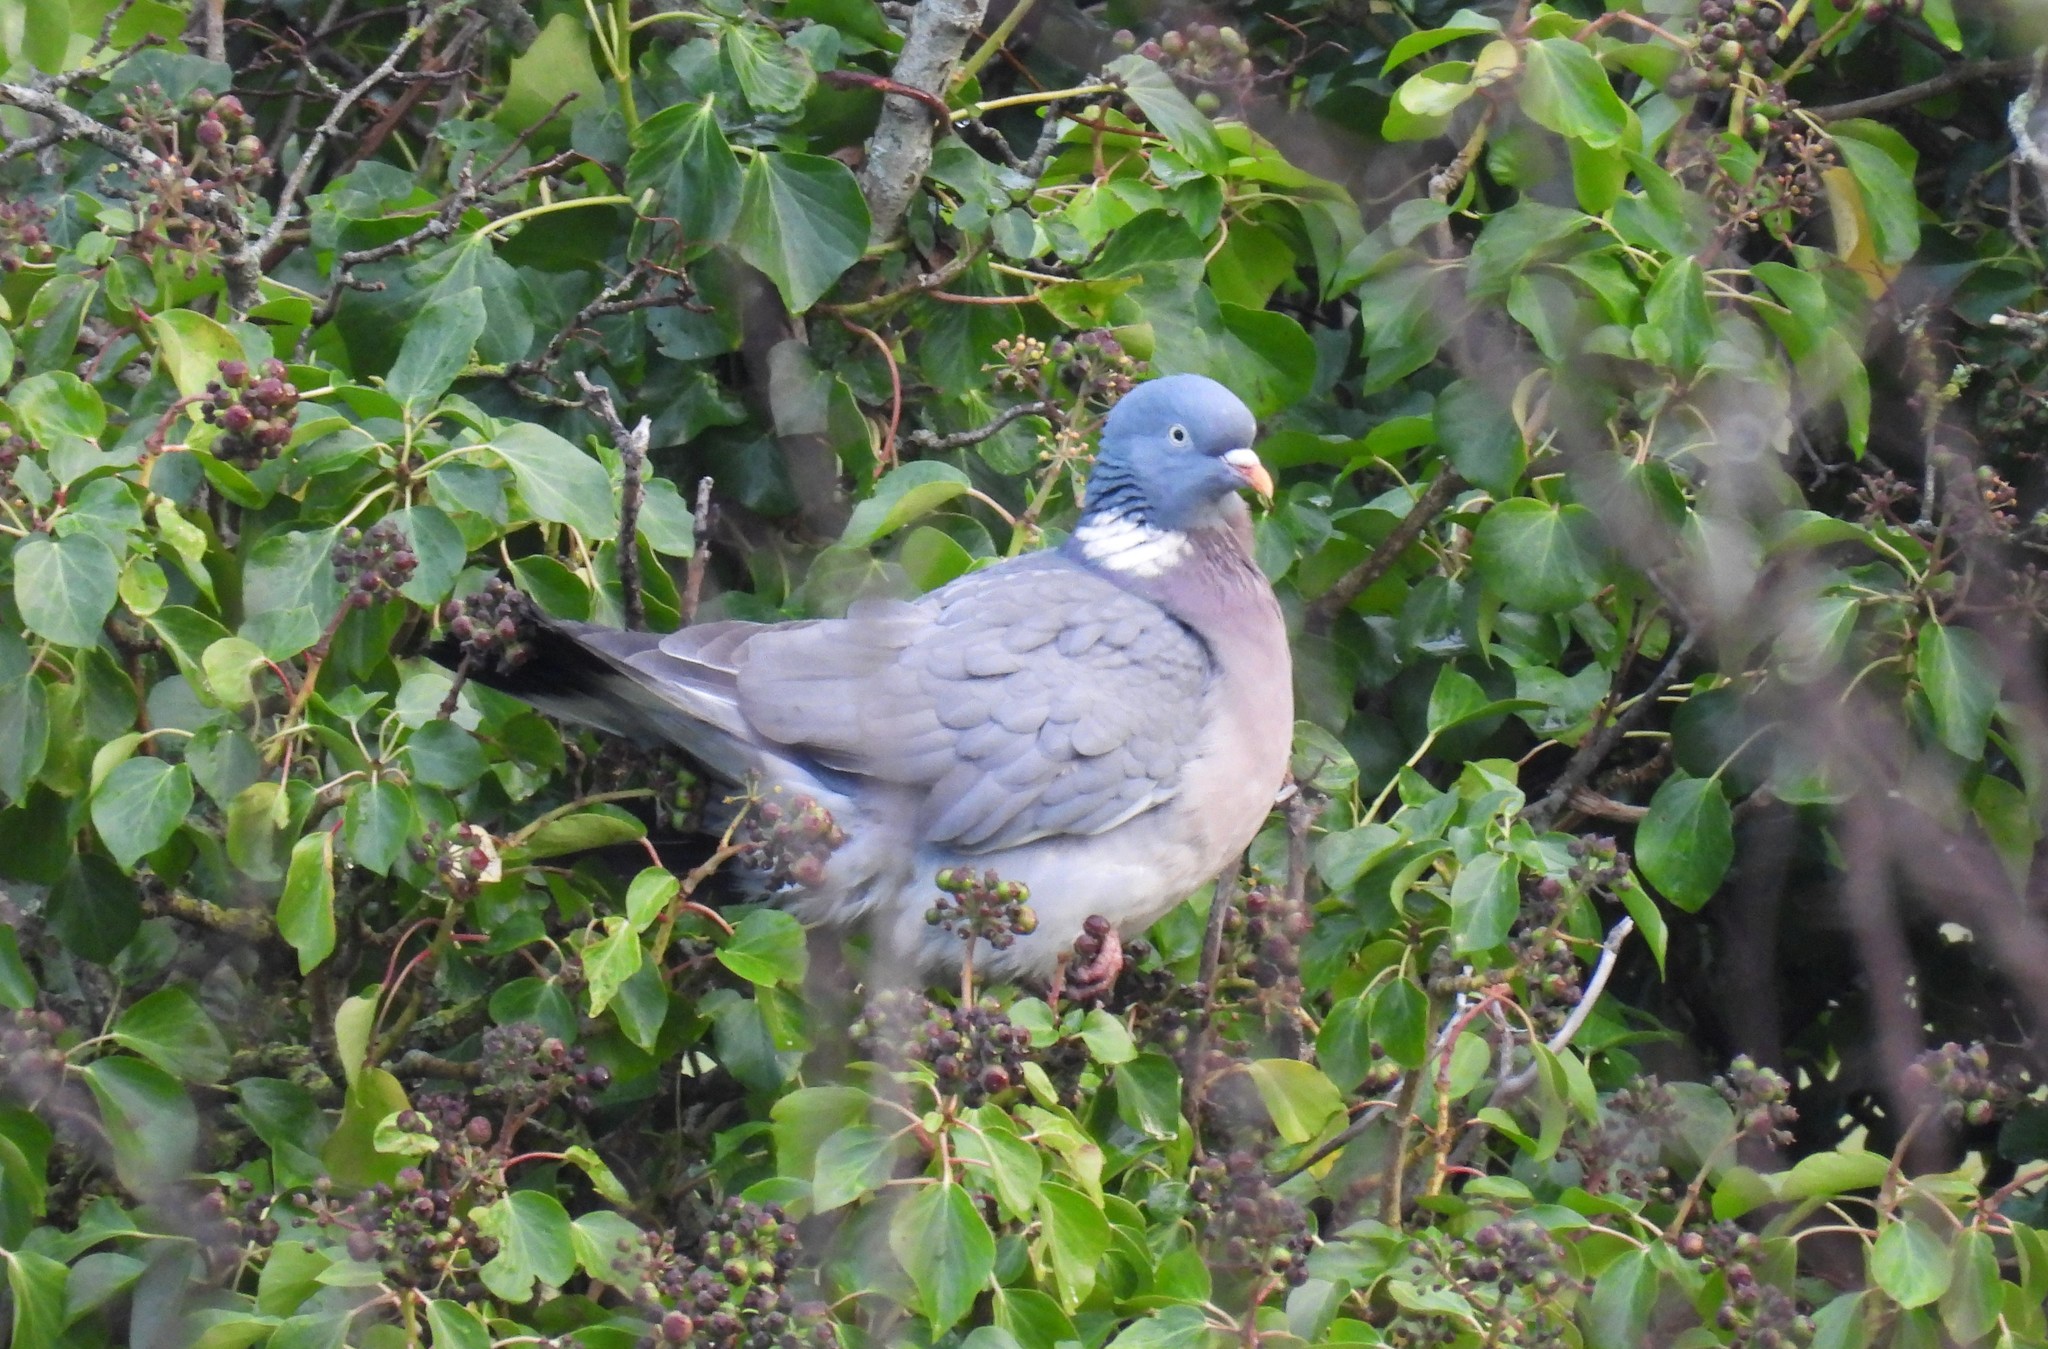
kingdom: Animalia
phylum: Chordata
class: Aves
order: Columbiformes
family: Columbidae
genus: Columba
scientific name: Columba palumbus
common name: Common wood pigeon
